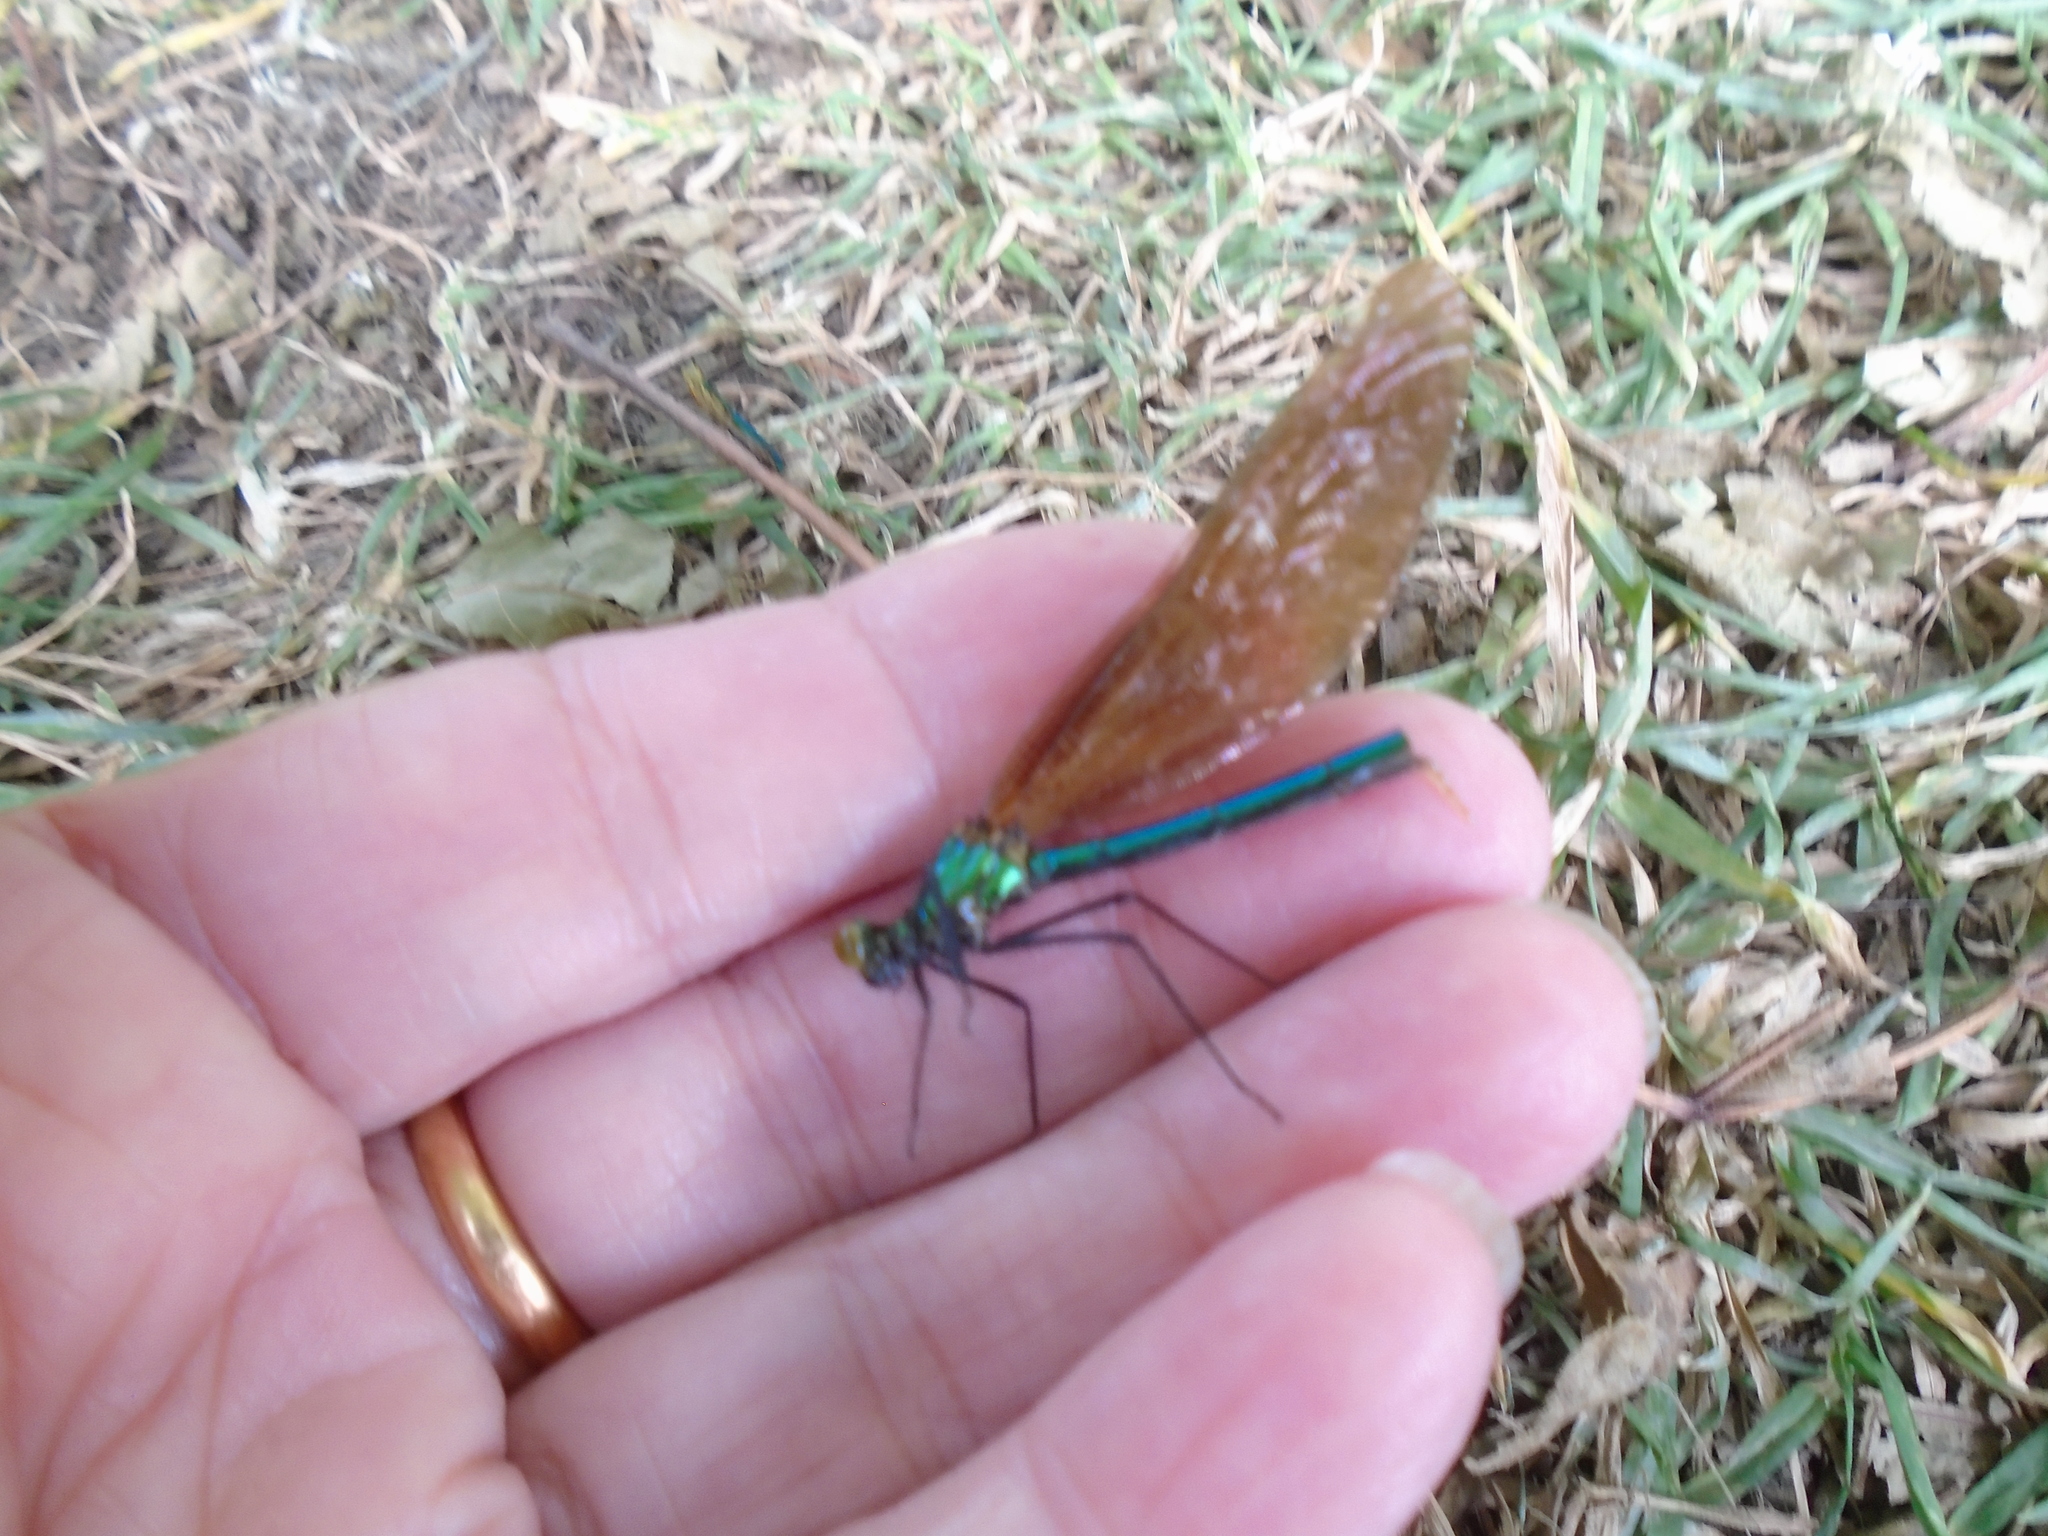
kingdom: Animalia
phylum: Arthropoda
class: Insecta
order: Odonata
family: Calopterygidae
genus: Calopteryx
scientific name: Calopteryx virgo
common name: Beautiful demoiselle
